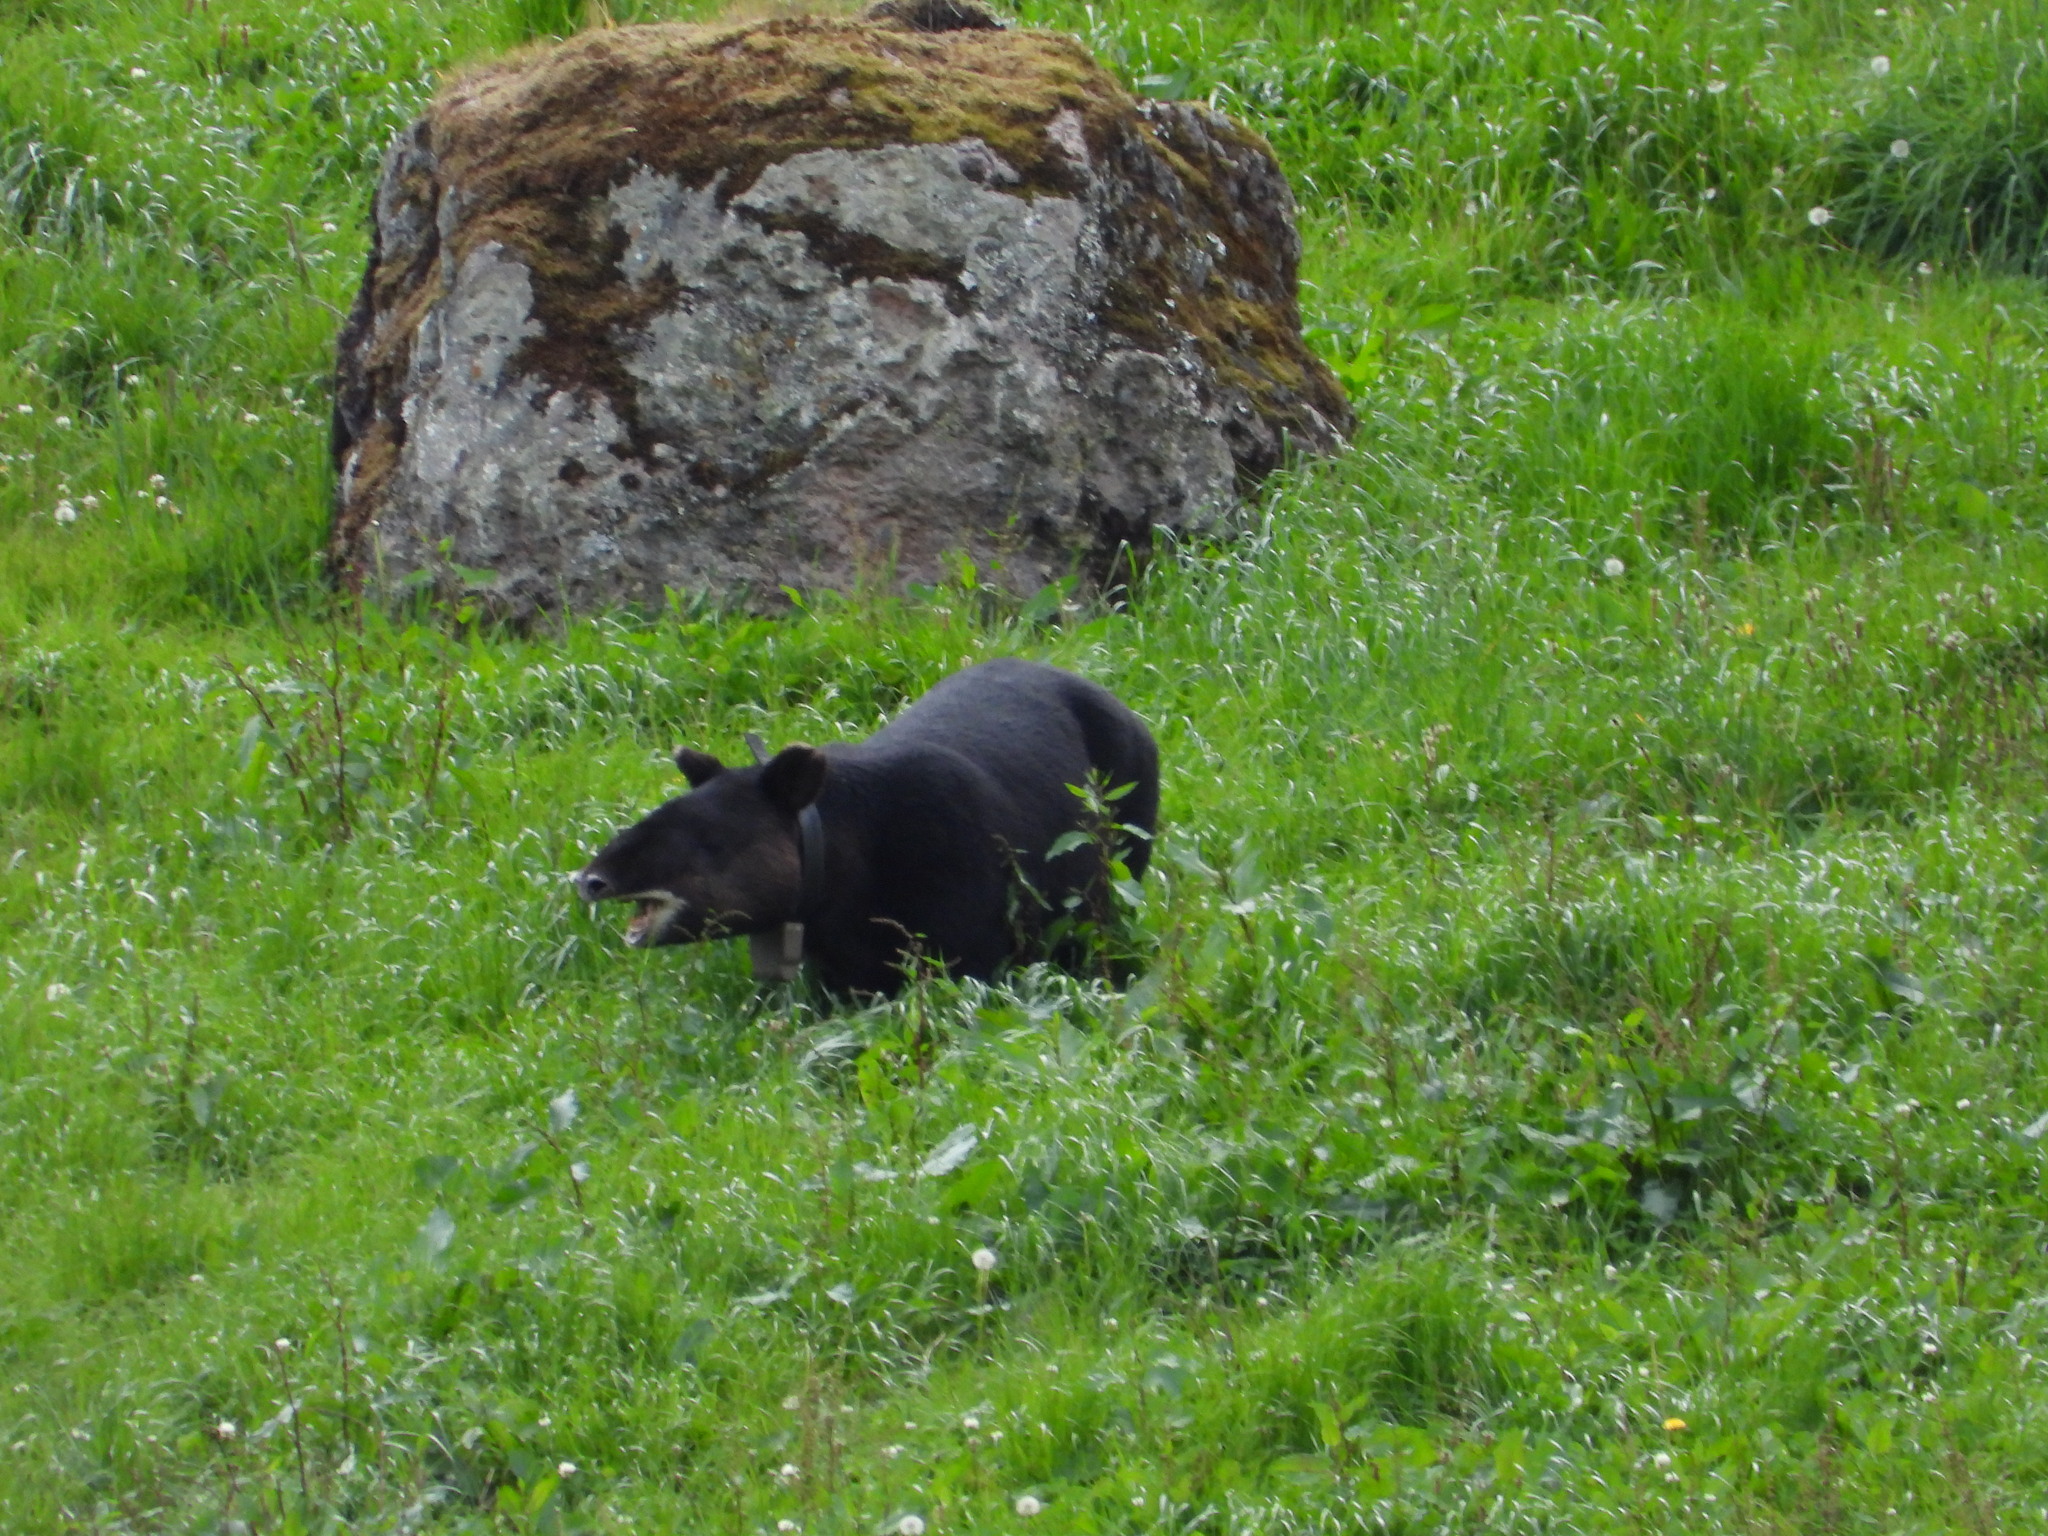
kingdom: Animalia
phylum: Chordata
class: Mammalia
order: Perissodactyla
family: Tapiridae
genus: Tapirus
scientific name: Tapirus pinchaque
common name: Mountain tapir
